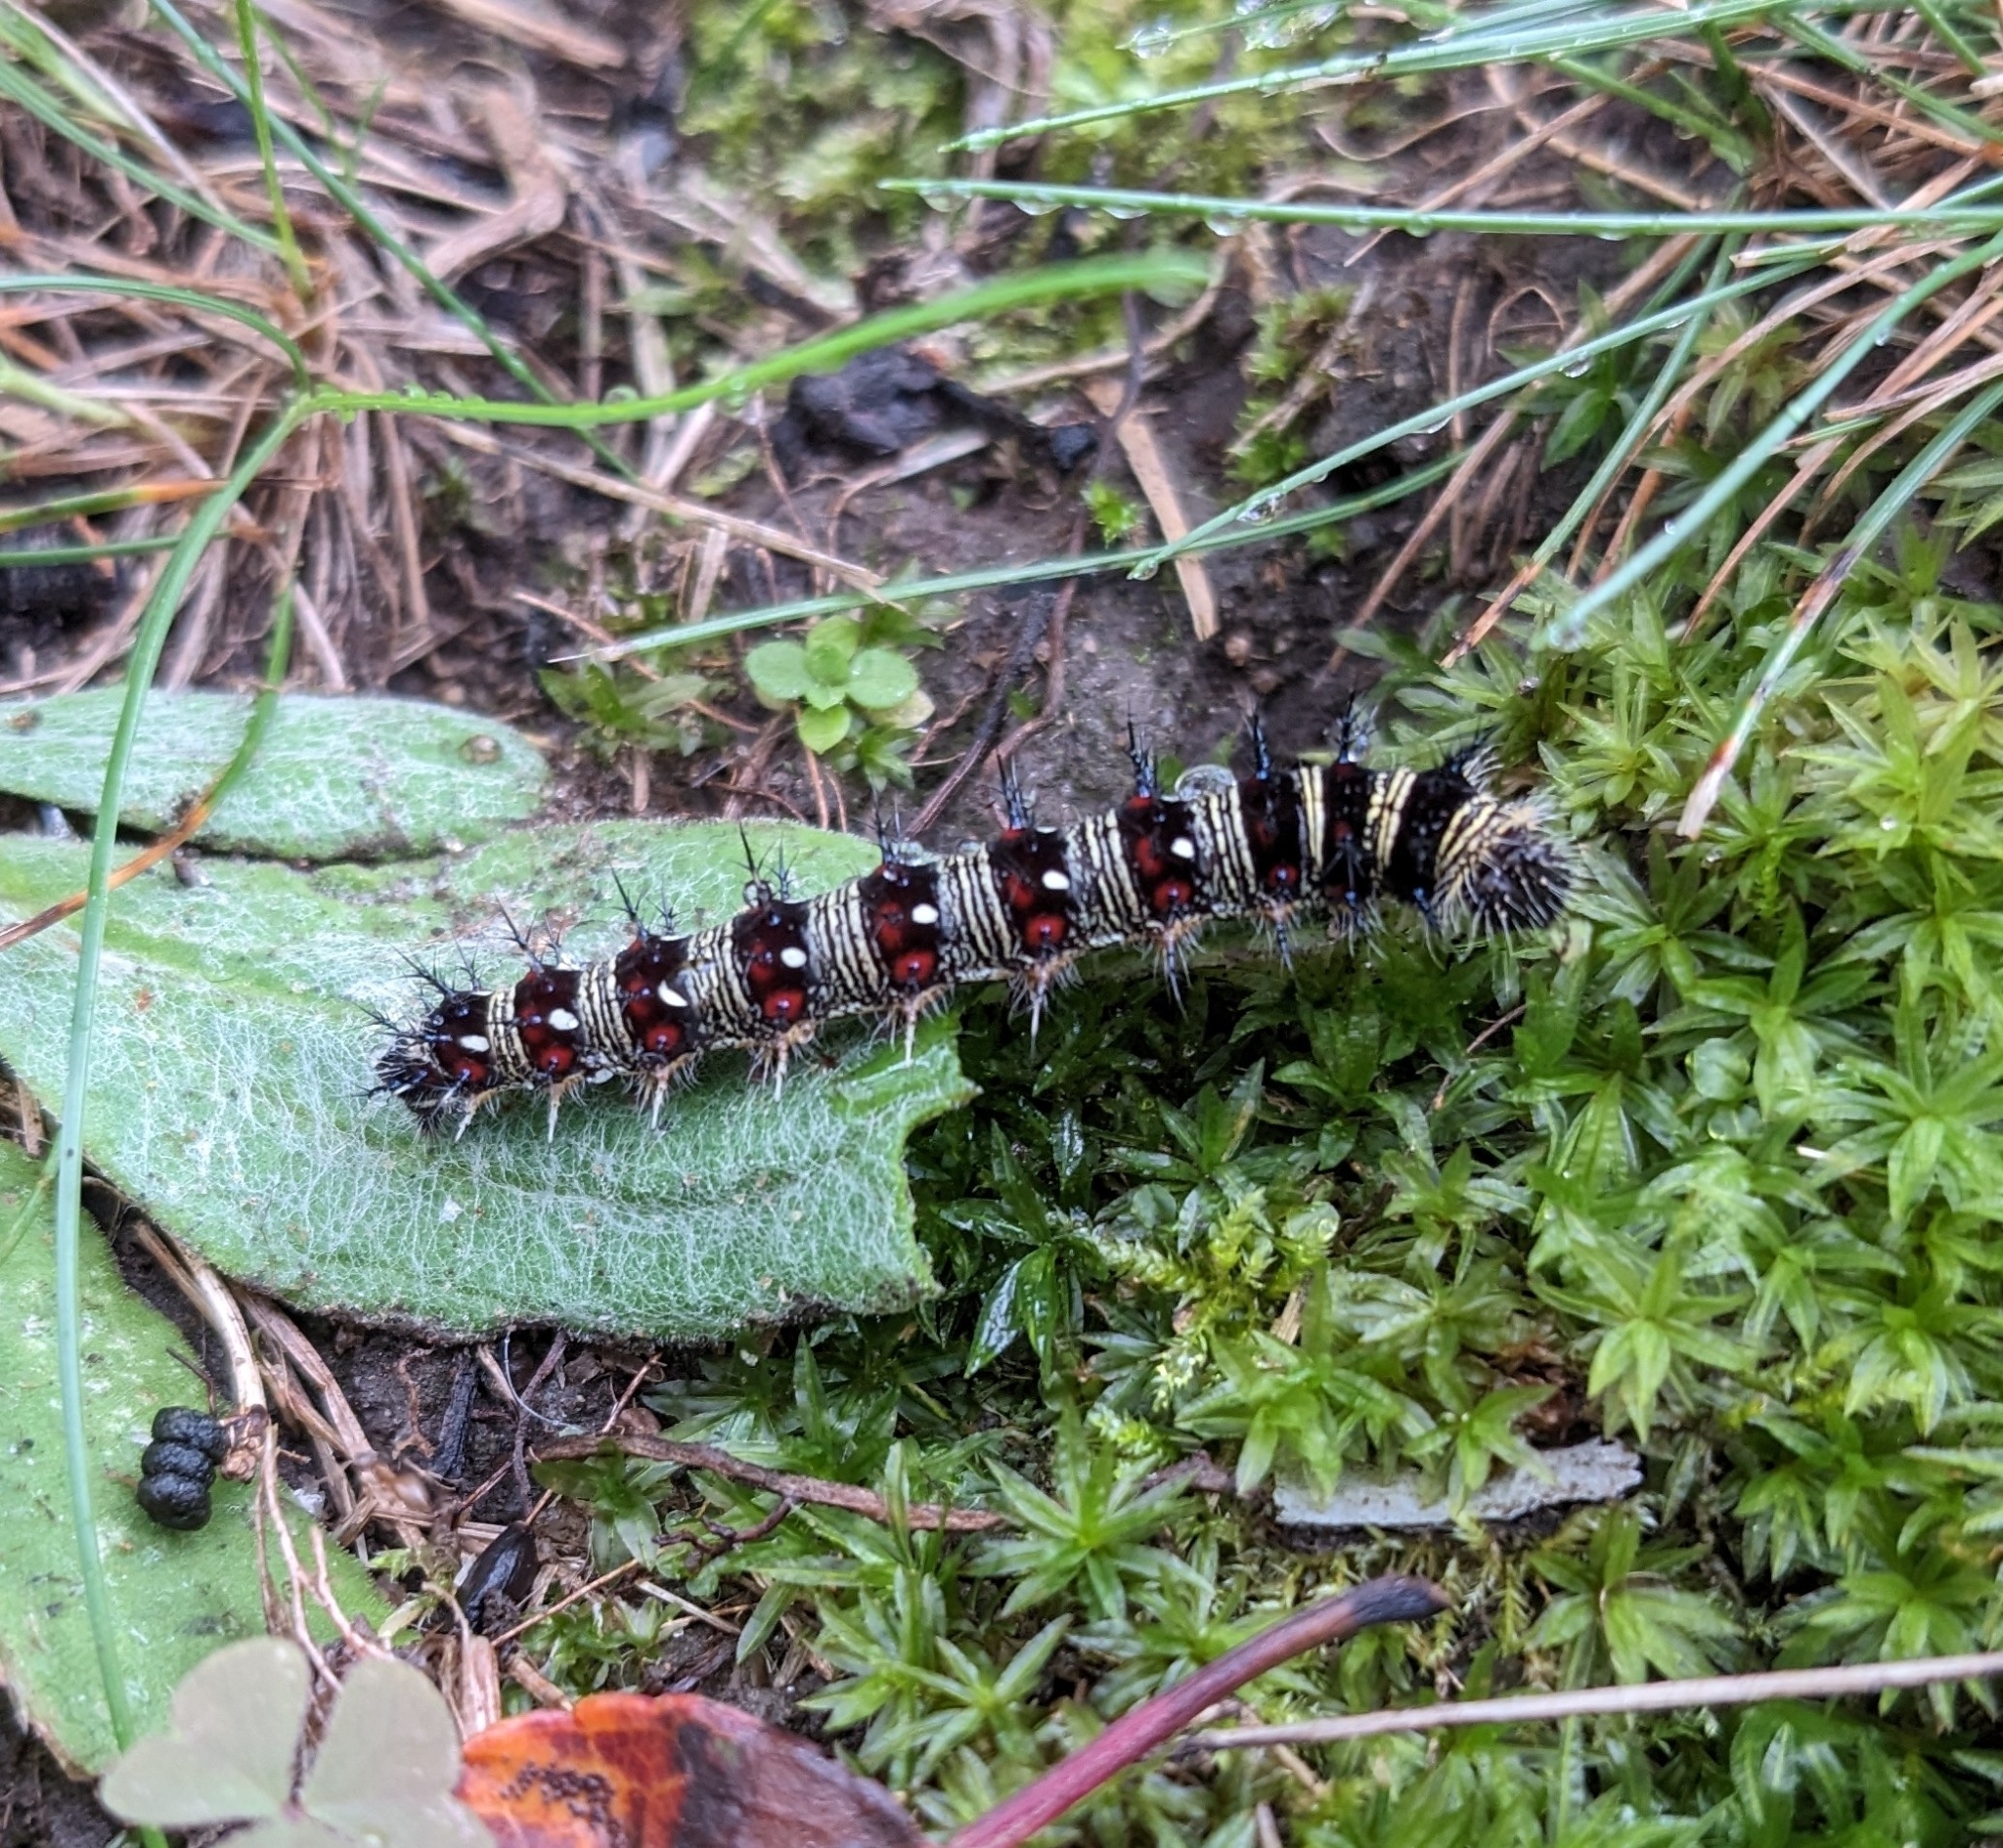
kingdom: Animalia
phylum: Arthropoda
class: Insecta
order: Lepidoptera
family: Nymphalidae
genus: Vanessa
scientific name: Vanessa virginiensis
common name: American lady
